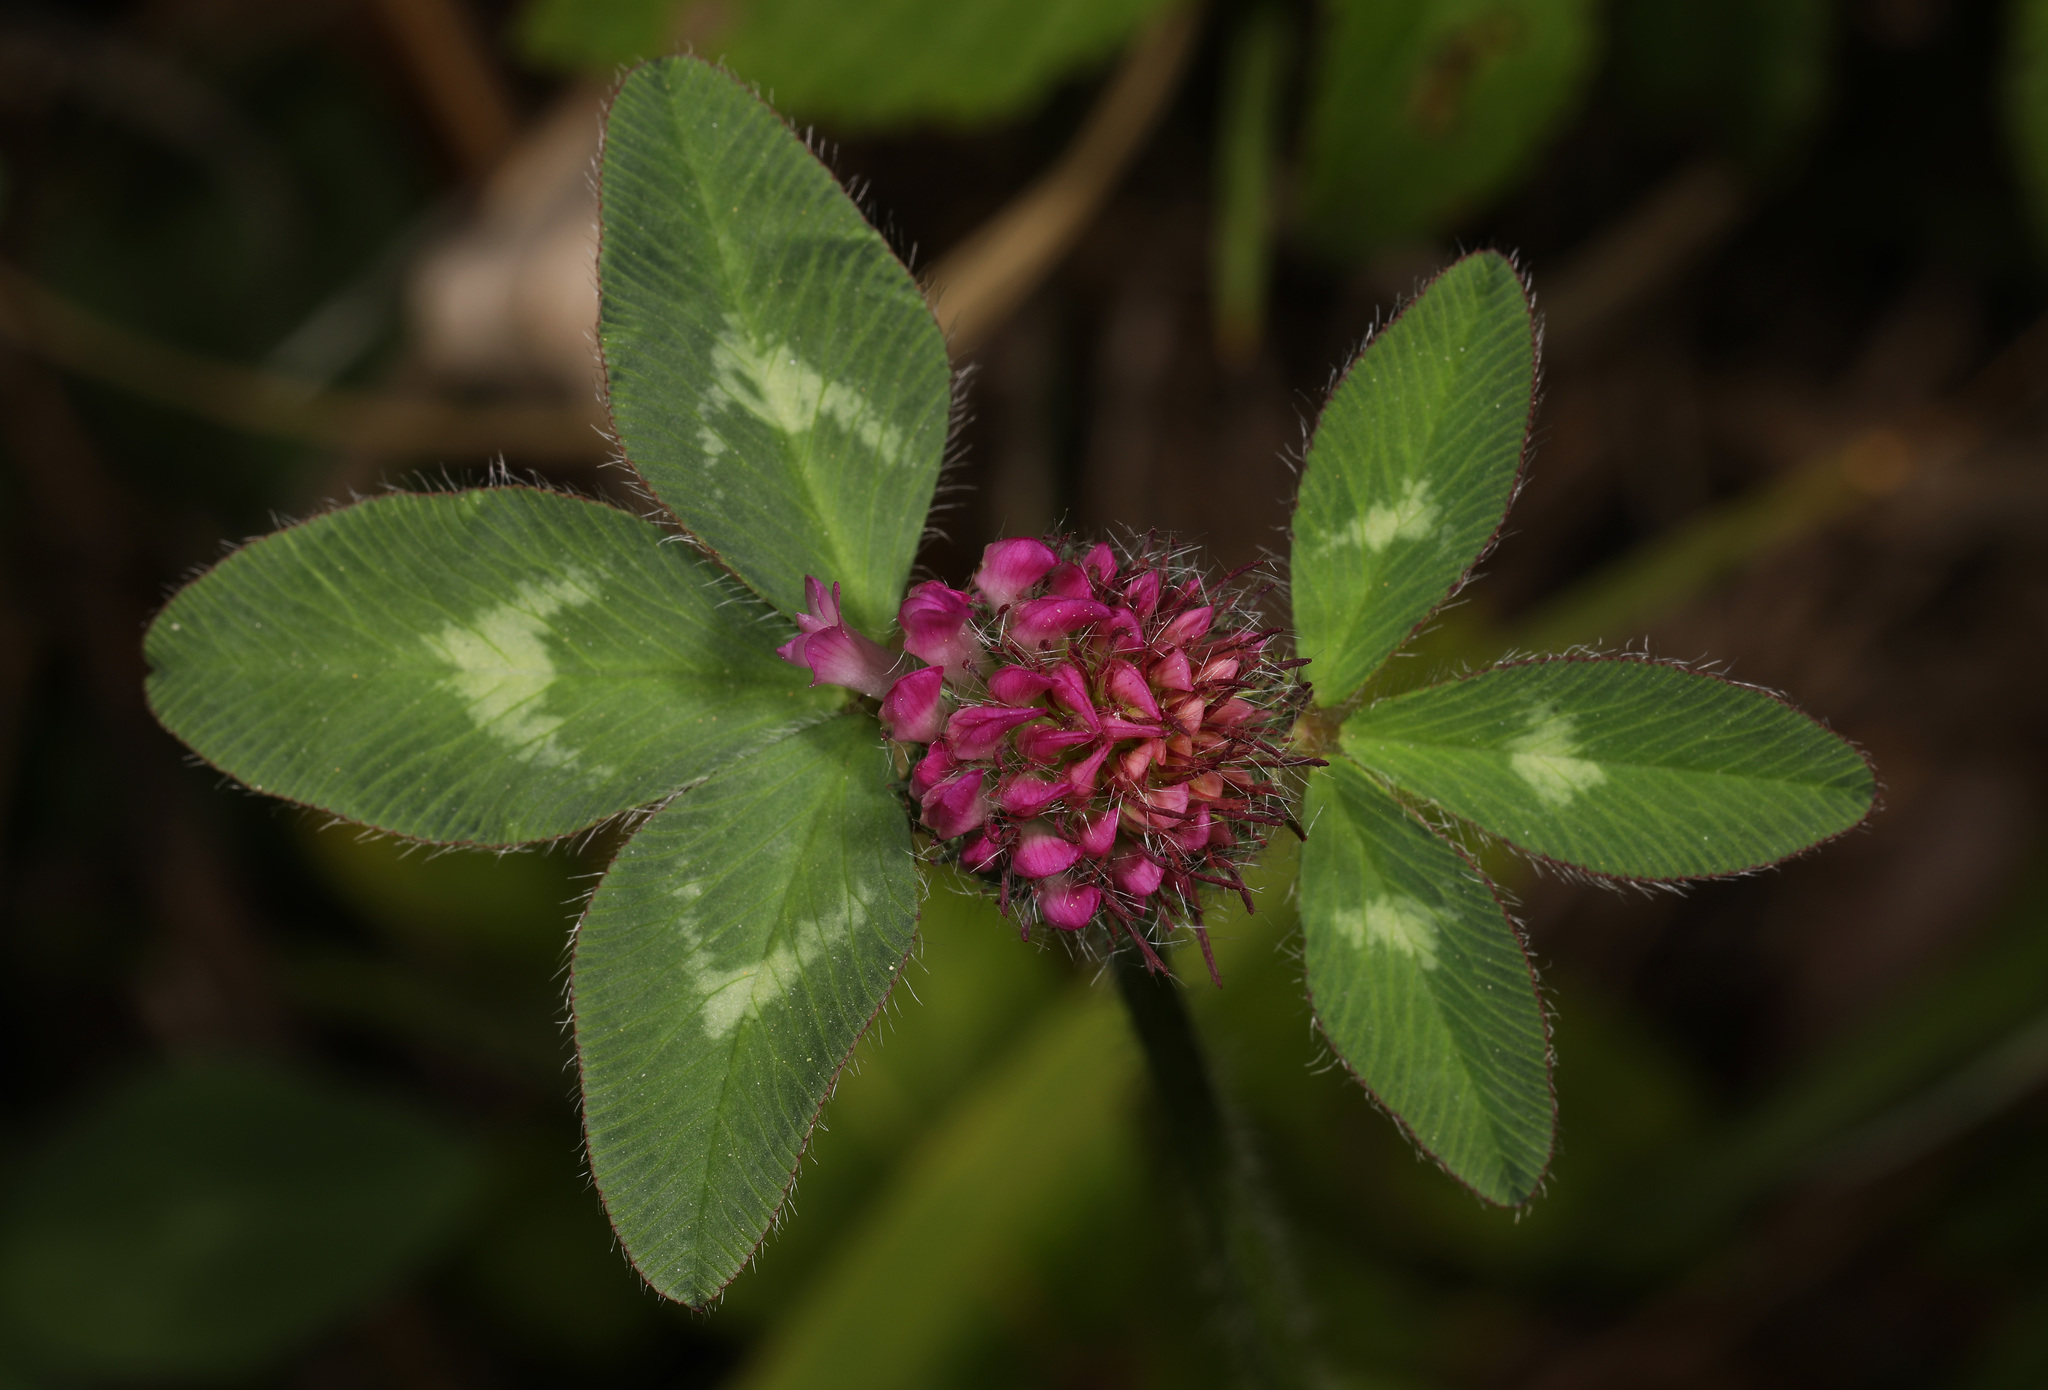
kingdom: Plantae
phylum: Tracheophyta
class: Magnoliopsida
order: Fabales
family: Fabaceae
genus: Trifolium
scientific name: Trifolium pratense
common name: Red clover
